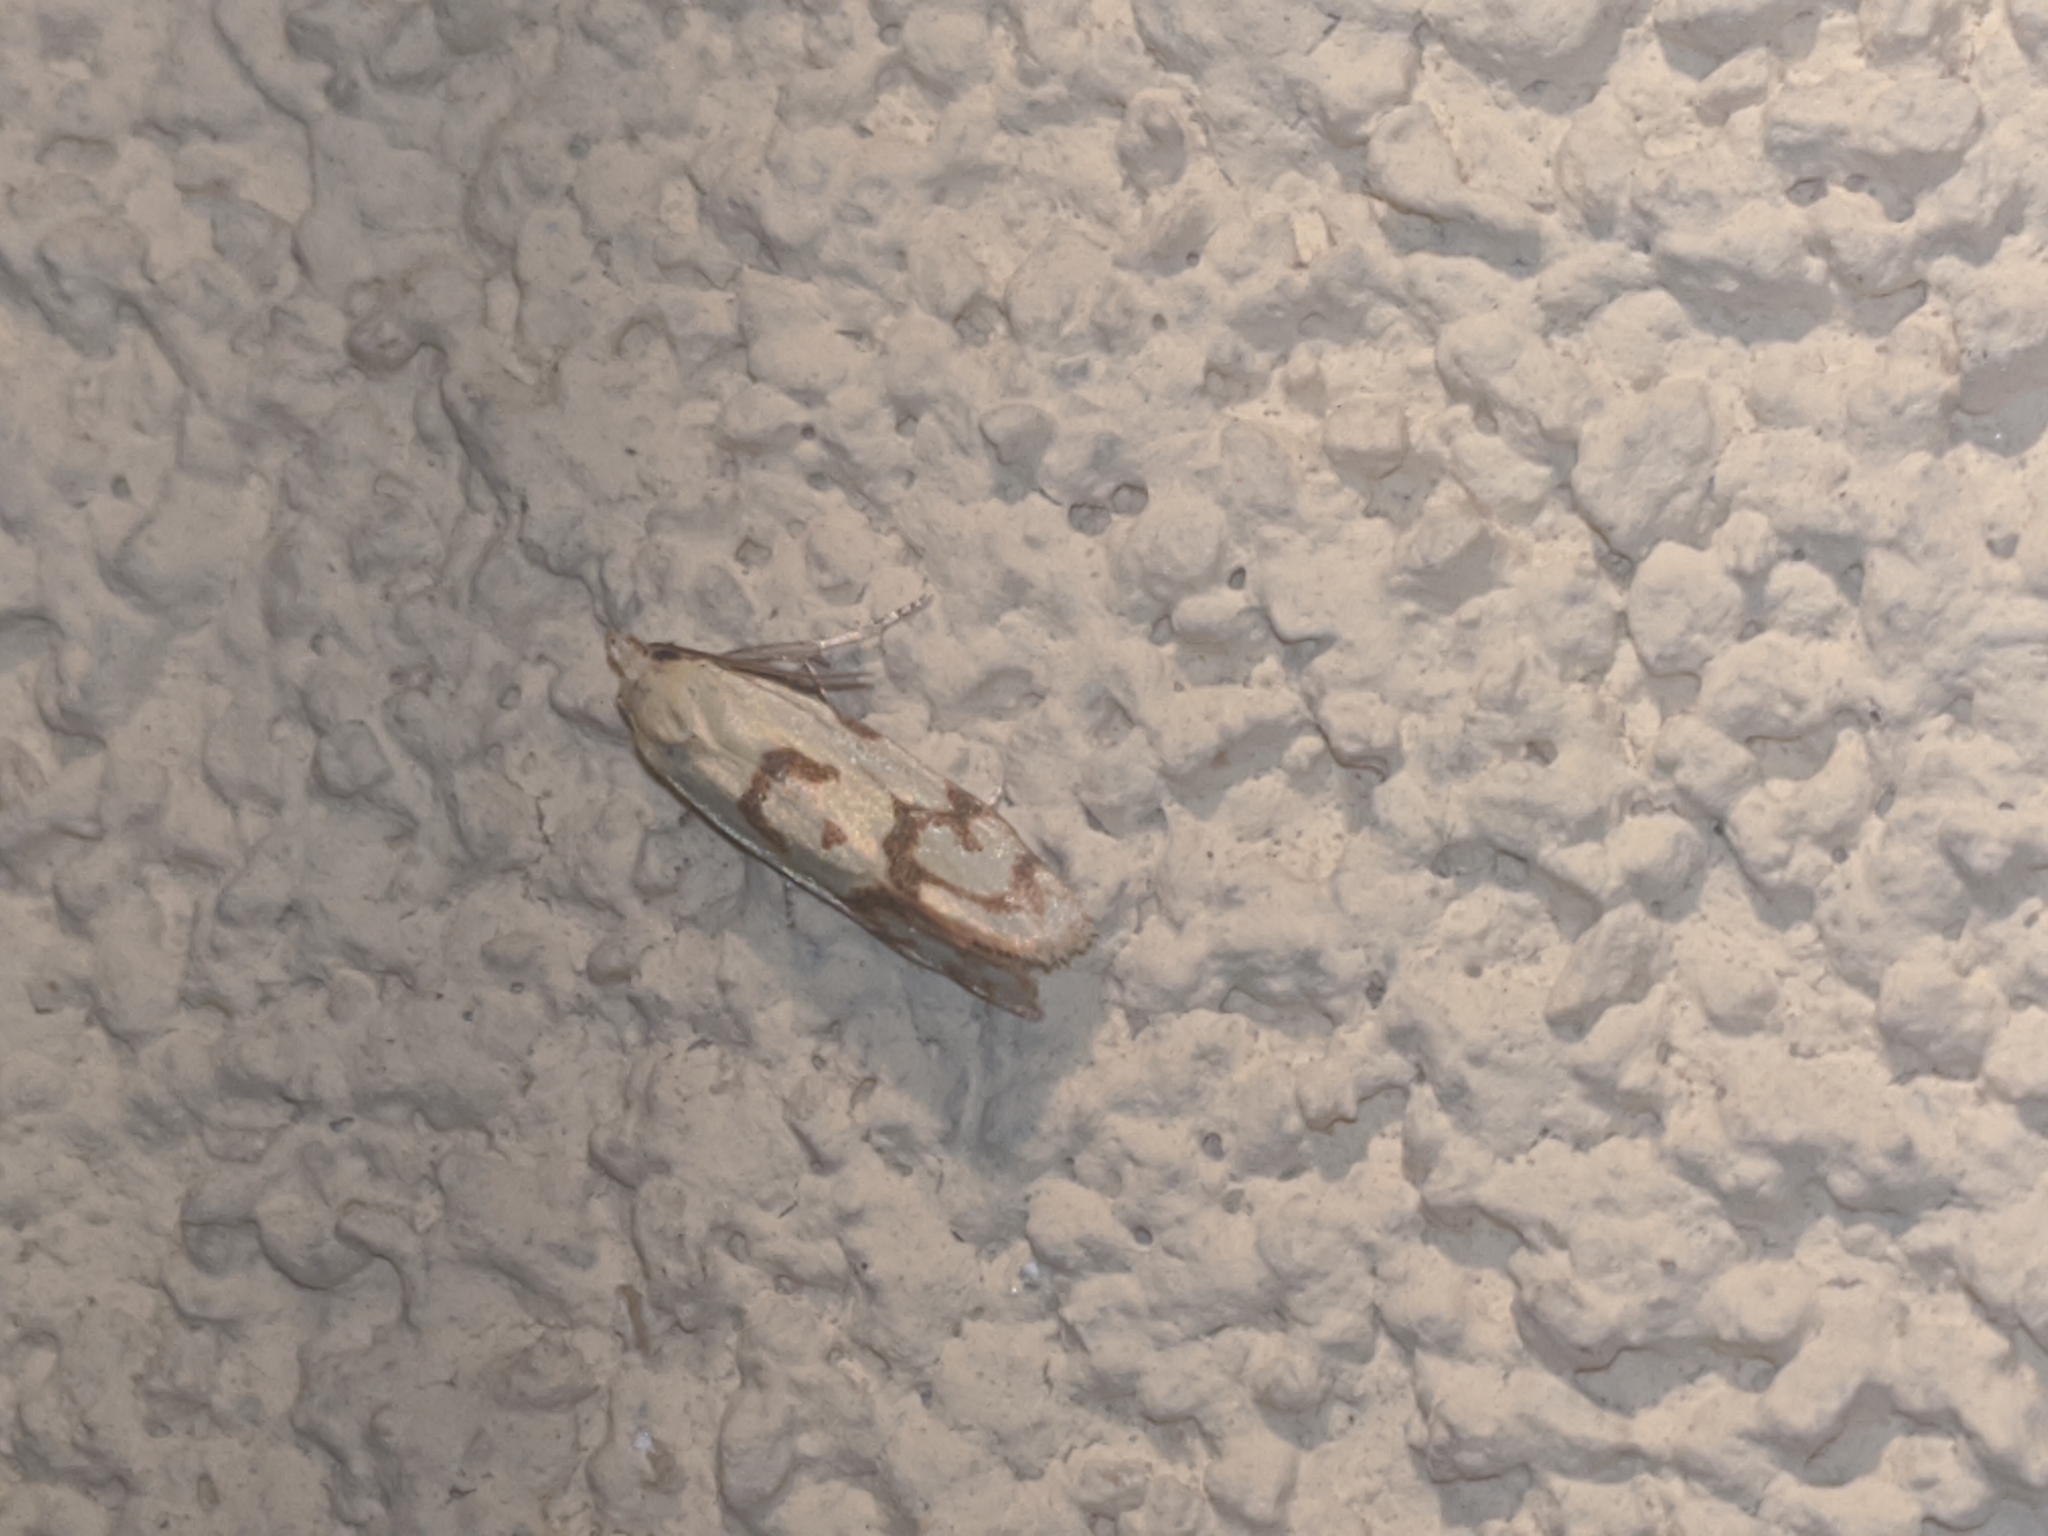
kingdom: Animalia
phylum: Arthropoda
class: Insecta
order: Lepidoptera
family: Tortricidae
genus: Agapeta
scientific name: Agapeta hamana
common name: Common yellow conch
